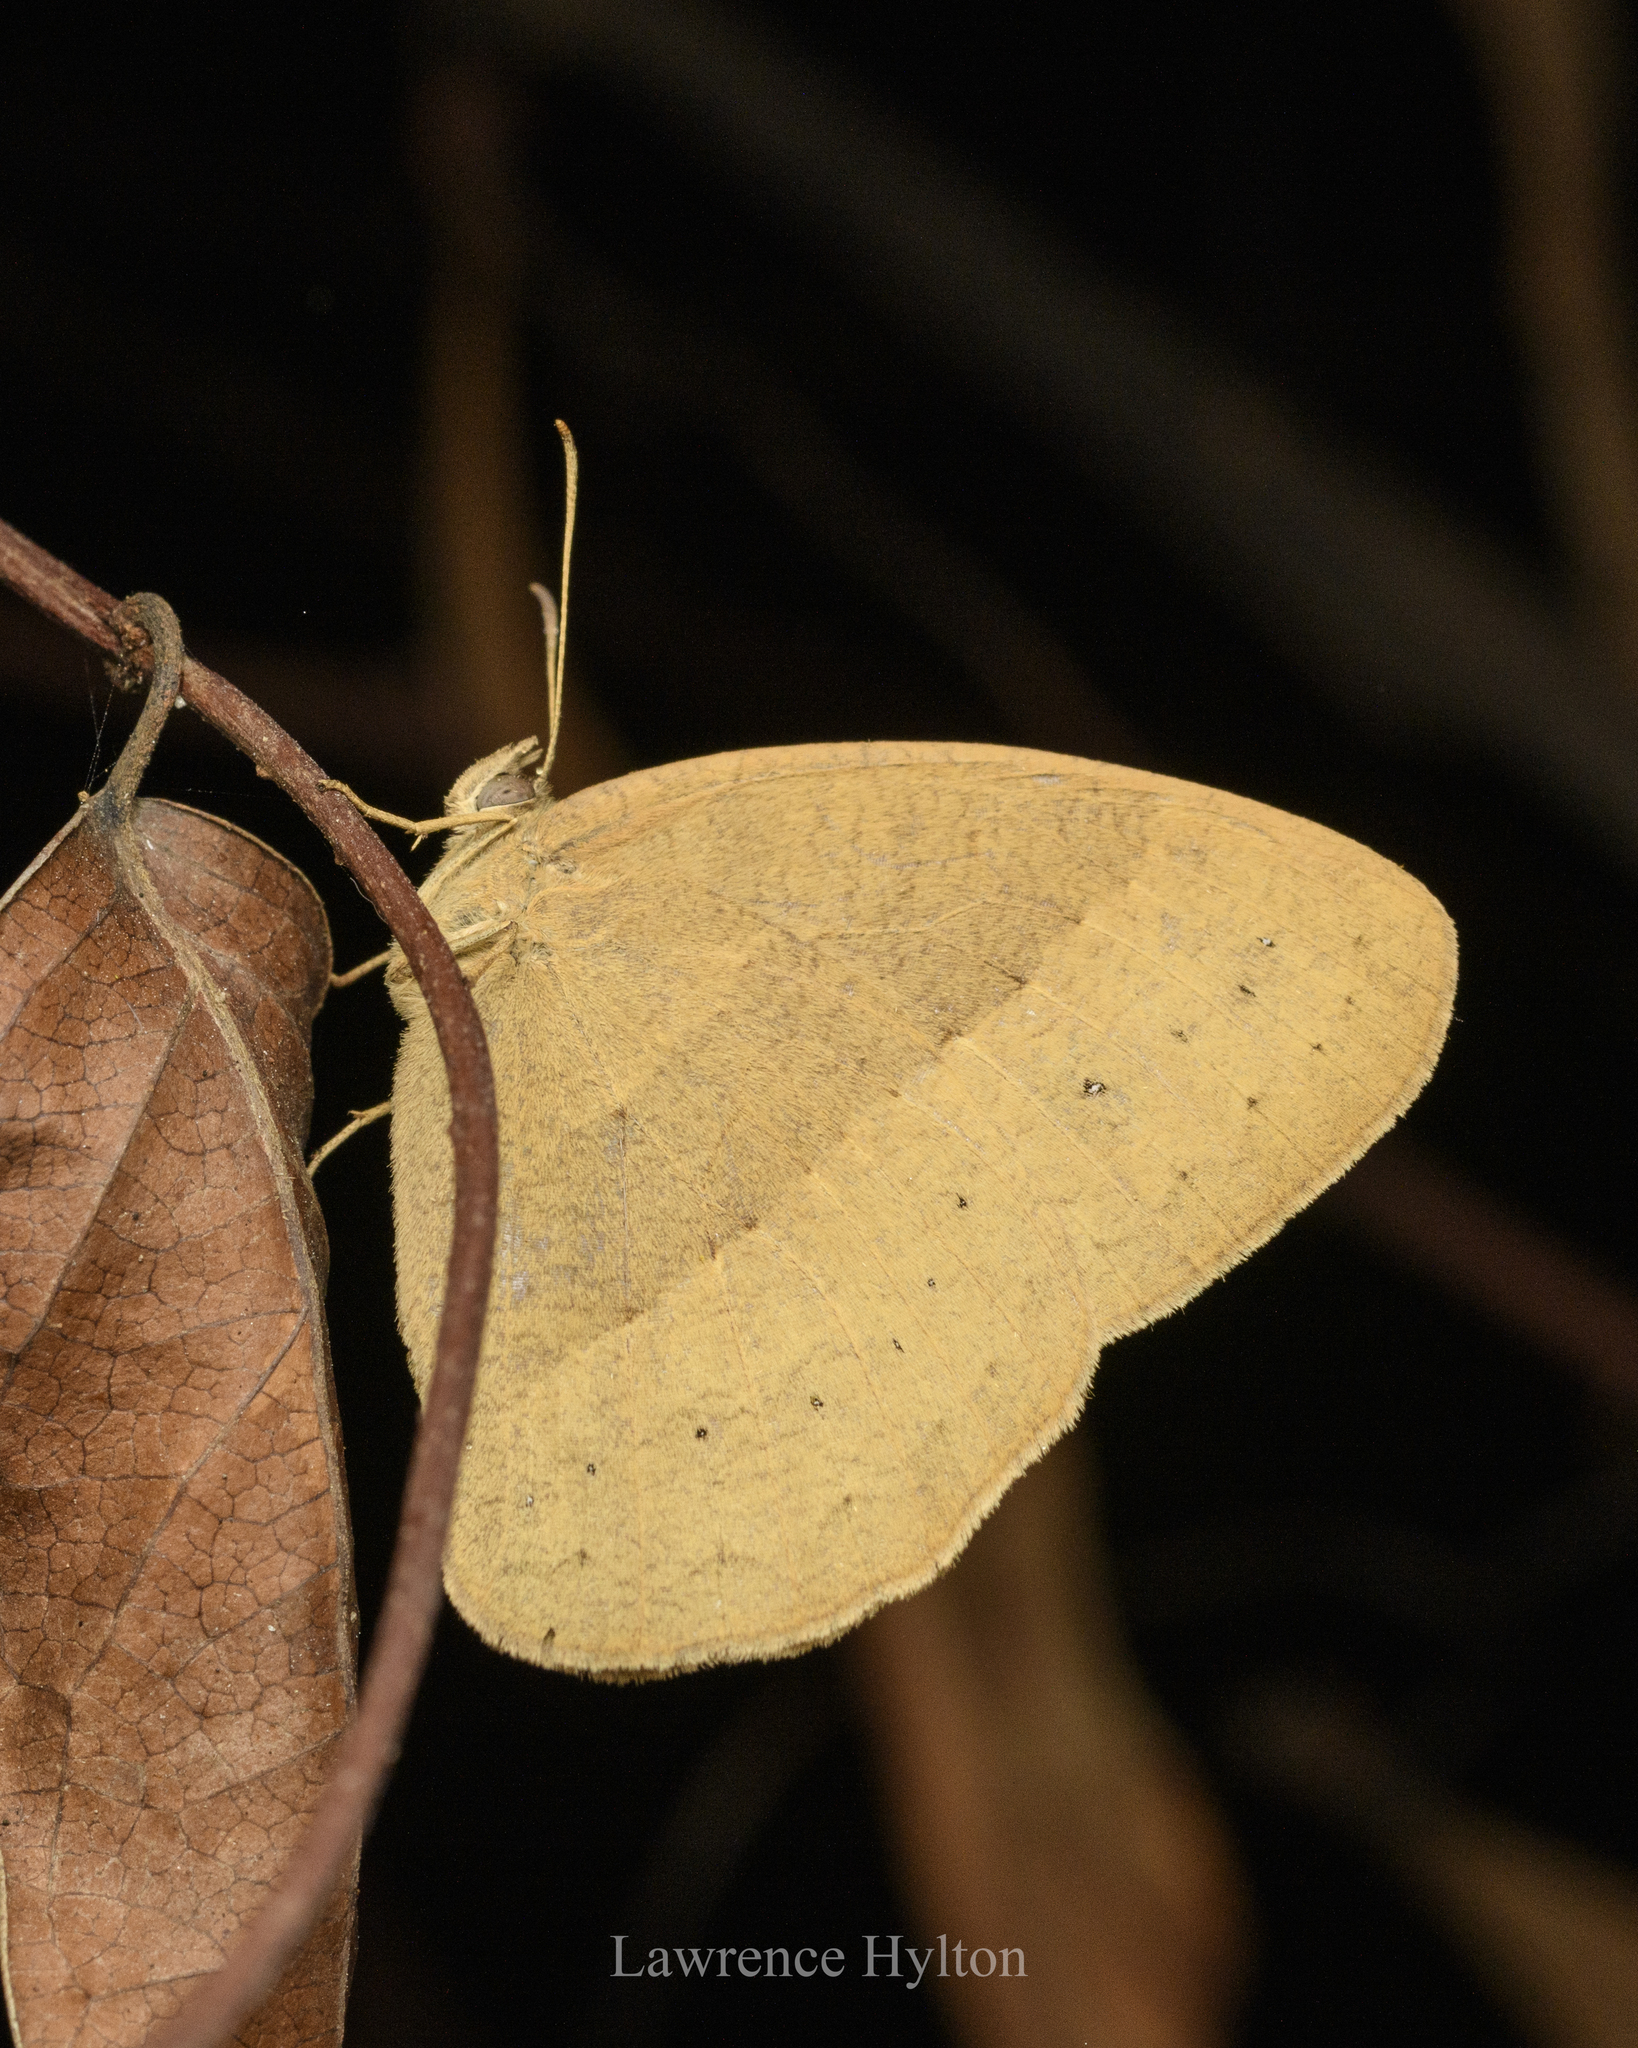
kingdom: Animalia
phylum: Arthropoda
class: Insecta
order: Lepidoptera
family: Nymphalidae
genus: Mycalesis
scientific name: Mycalesis mineus
